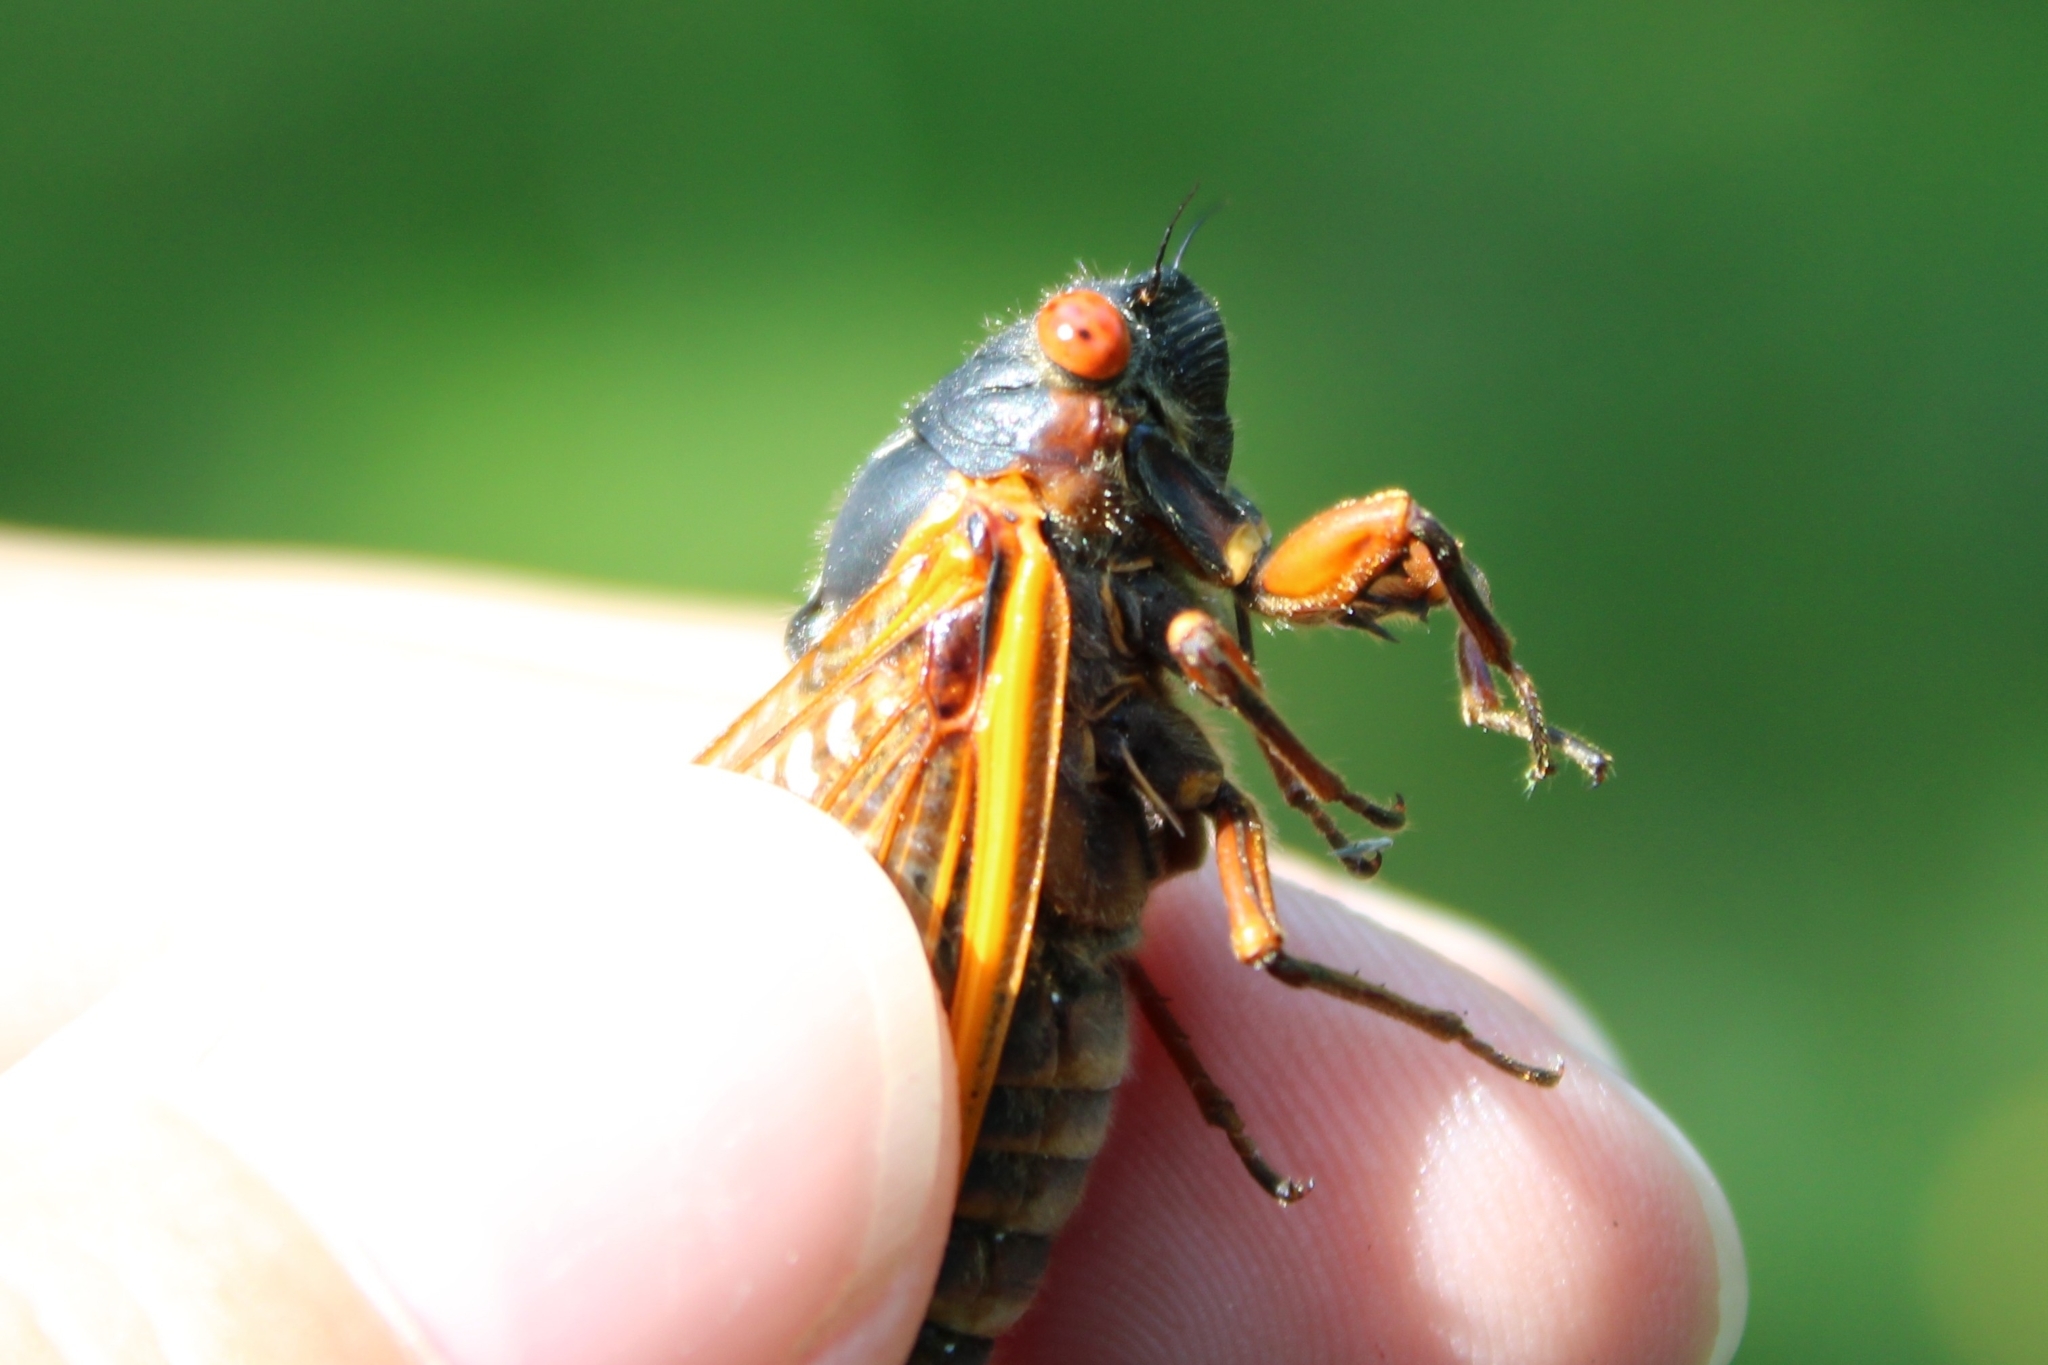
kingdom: Animalia
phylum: Arthropoda
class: Insecta
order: Hemiptera
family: Cicadidae
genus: Magicicada
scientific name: Magicicada septendecim
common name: Periodical cicada
